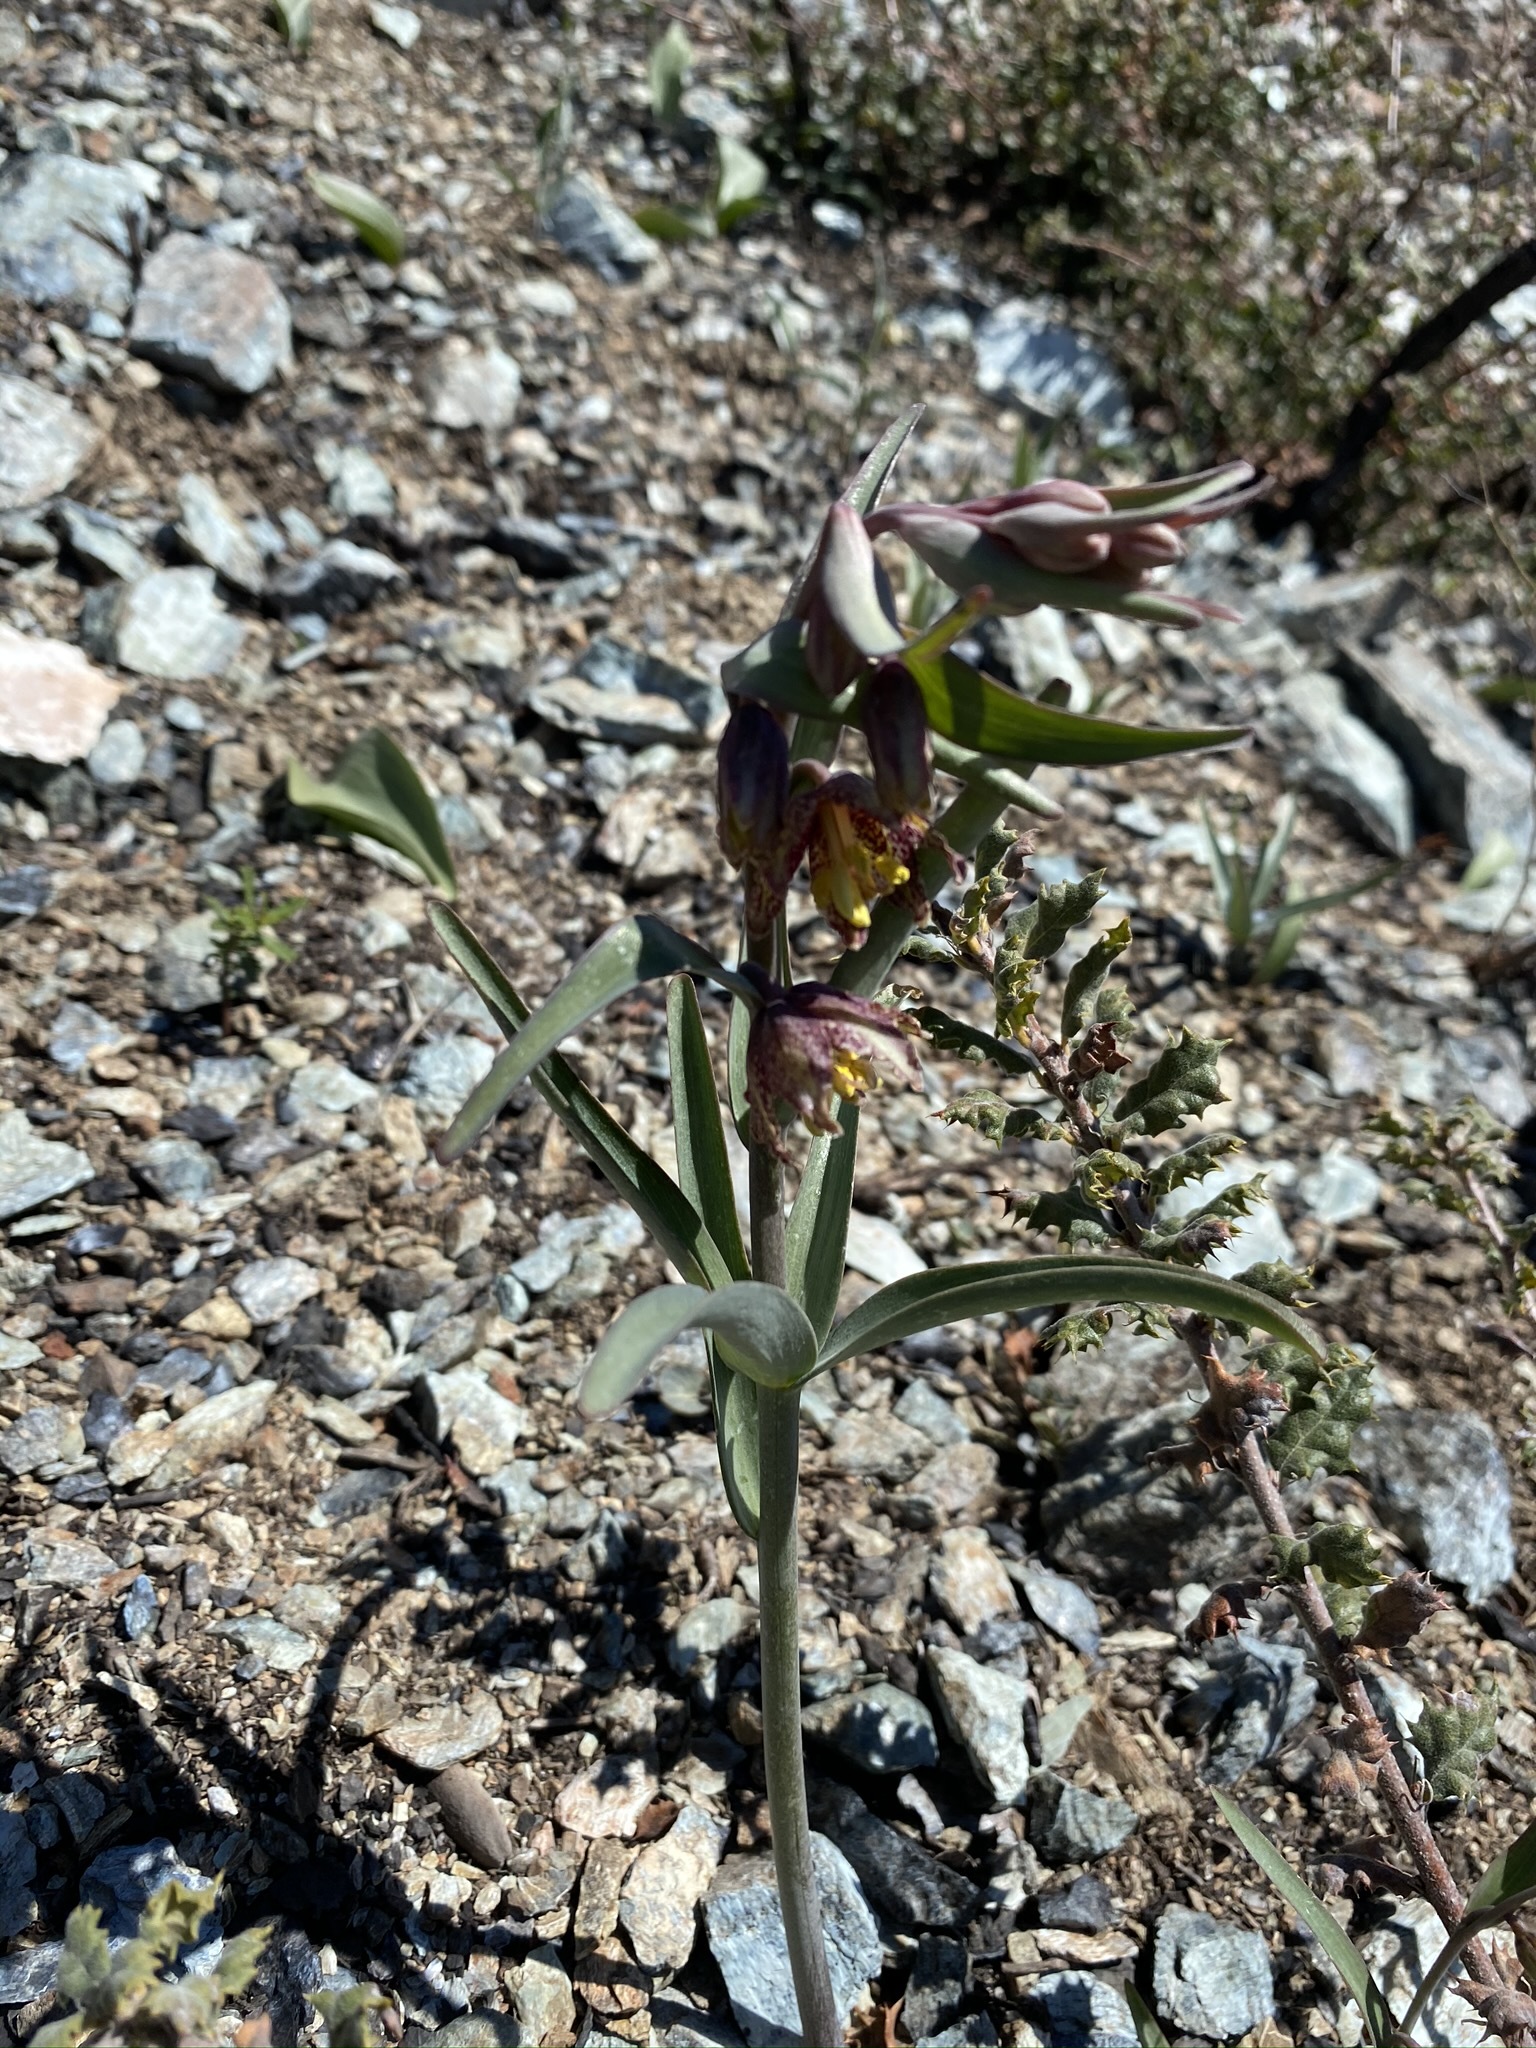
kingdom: Plantae
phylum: Tracheophyta
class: Liliopsida
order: Liliales
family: Liliaceae
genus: Fritillaria
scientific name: Fritillaria affinis
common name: Ojai fritillary
